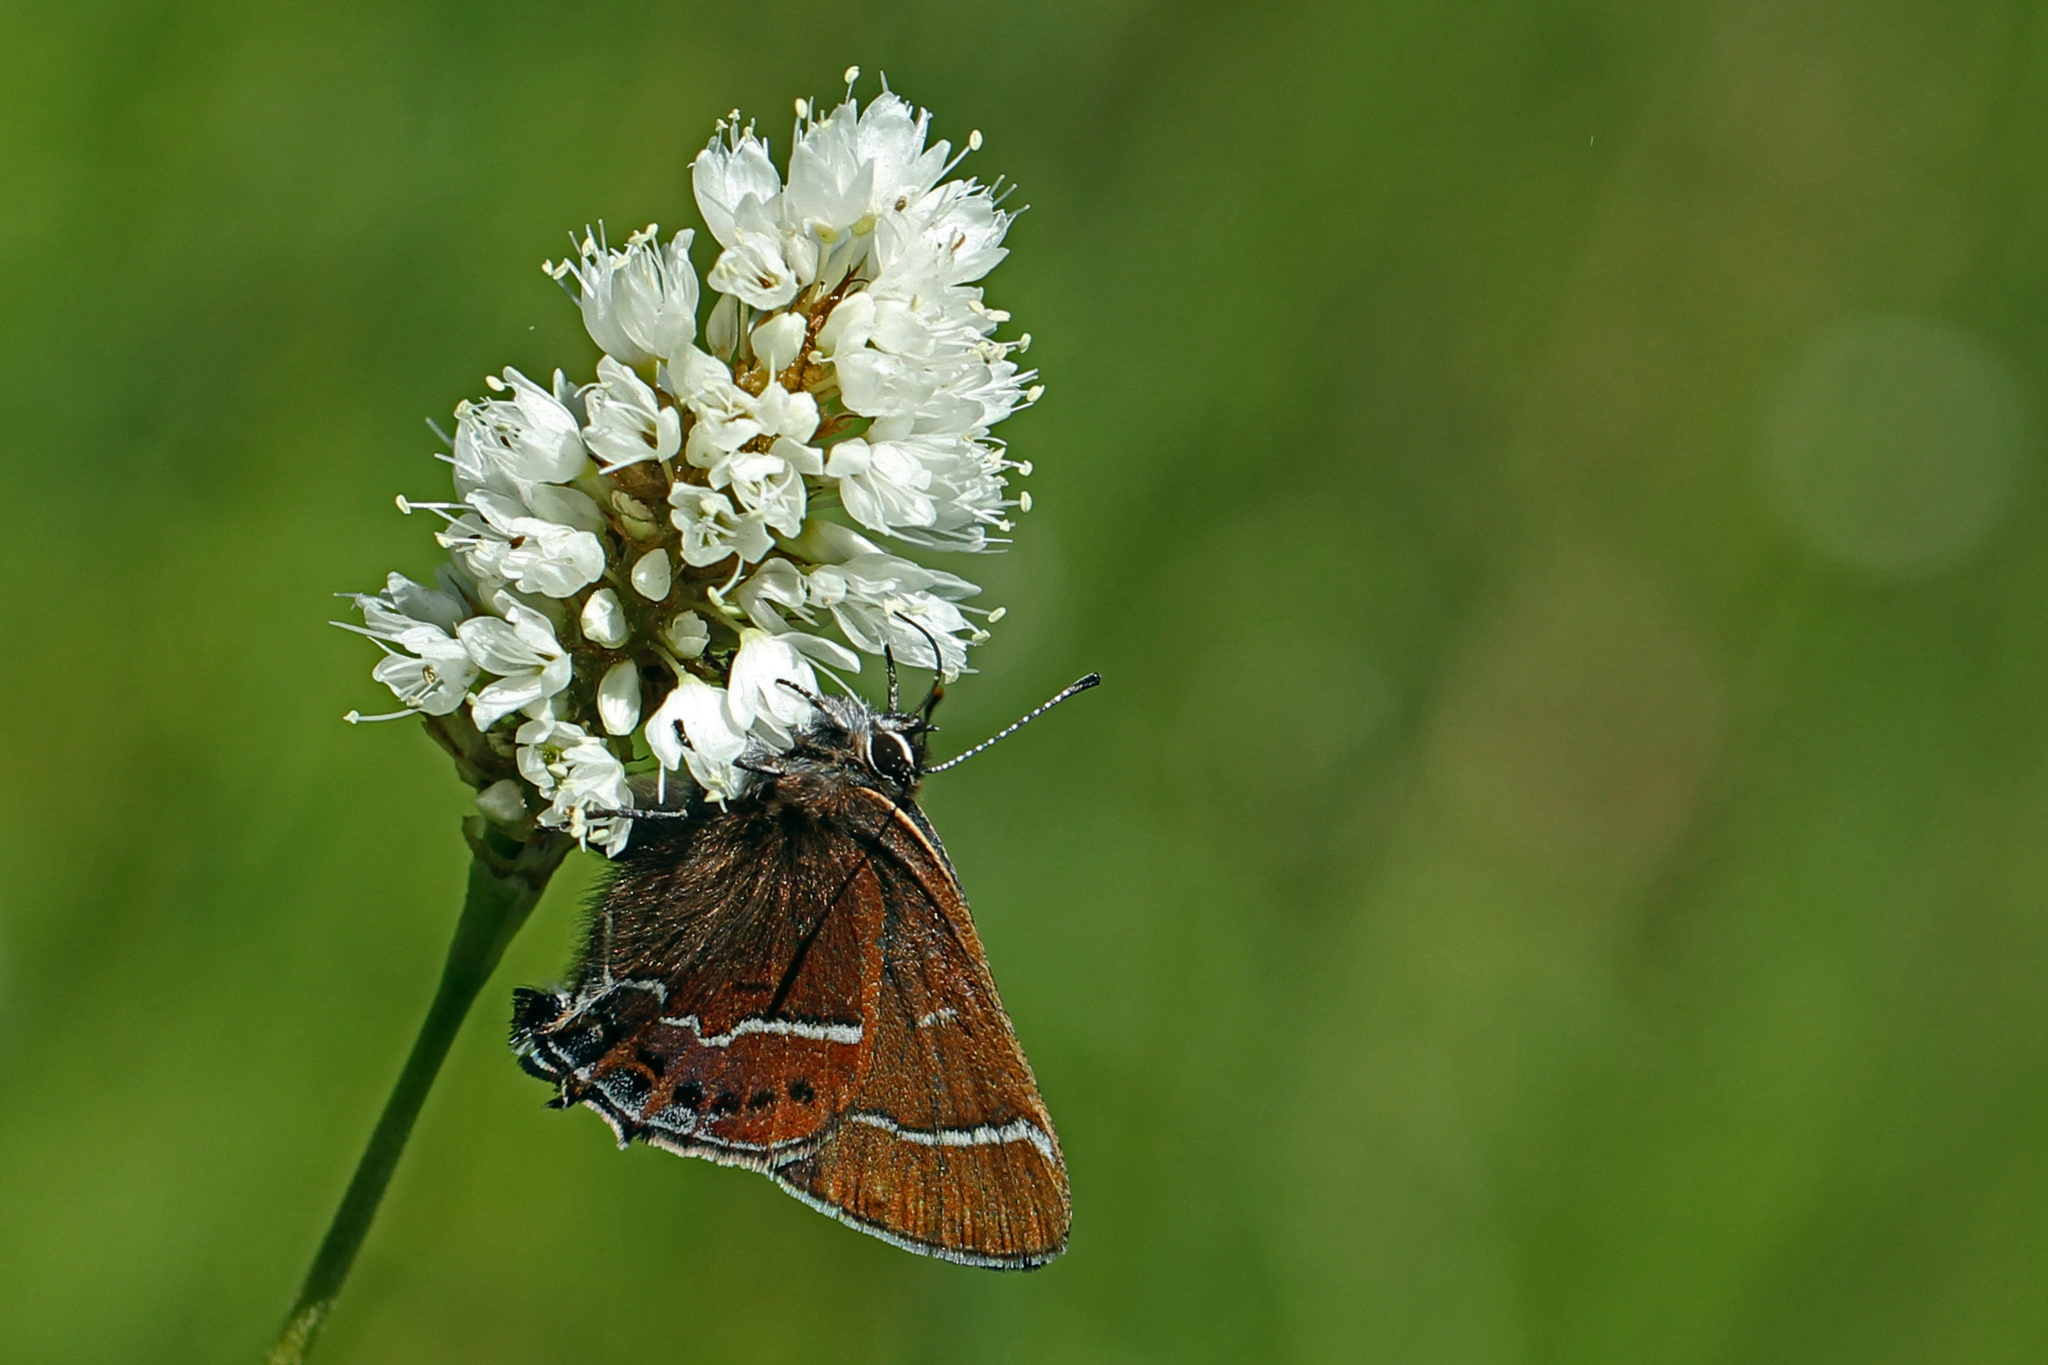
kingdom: Animalia
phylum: Arthropoda
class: Insecta
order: Lepidoptera
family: Lycaenidae
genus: Mitoura
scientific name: Mitoura spinetorum
